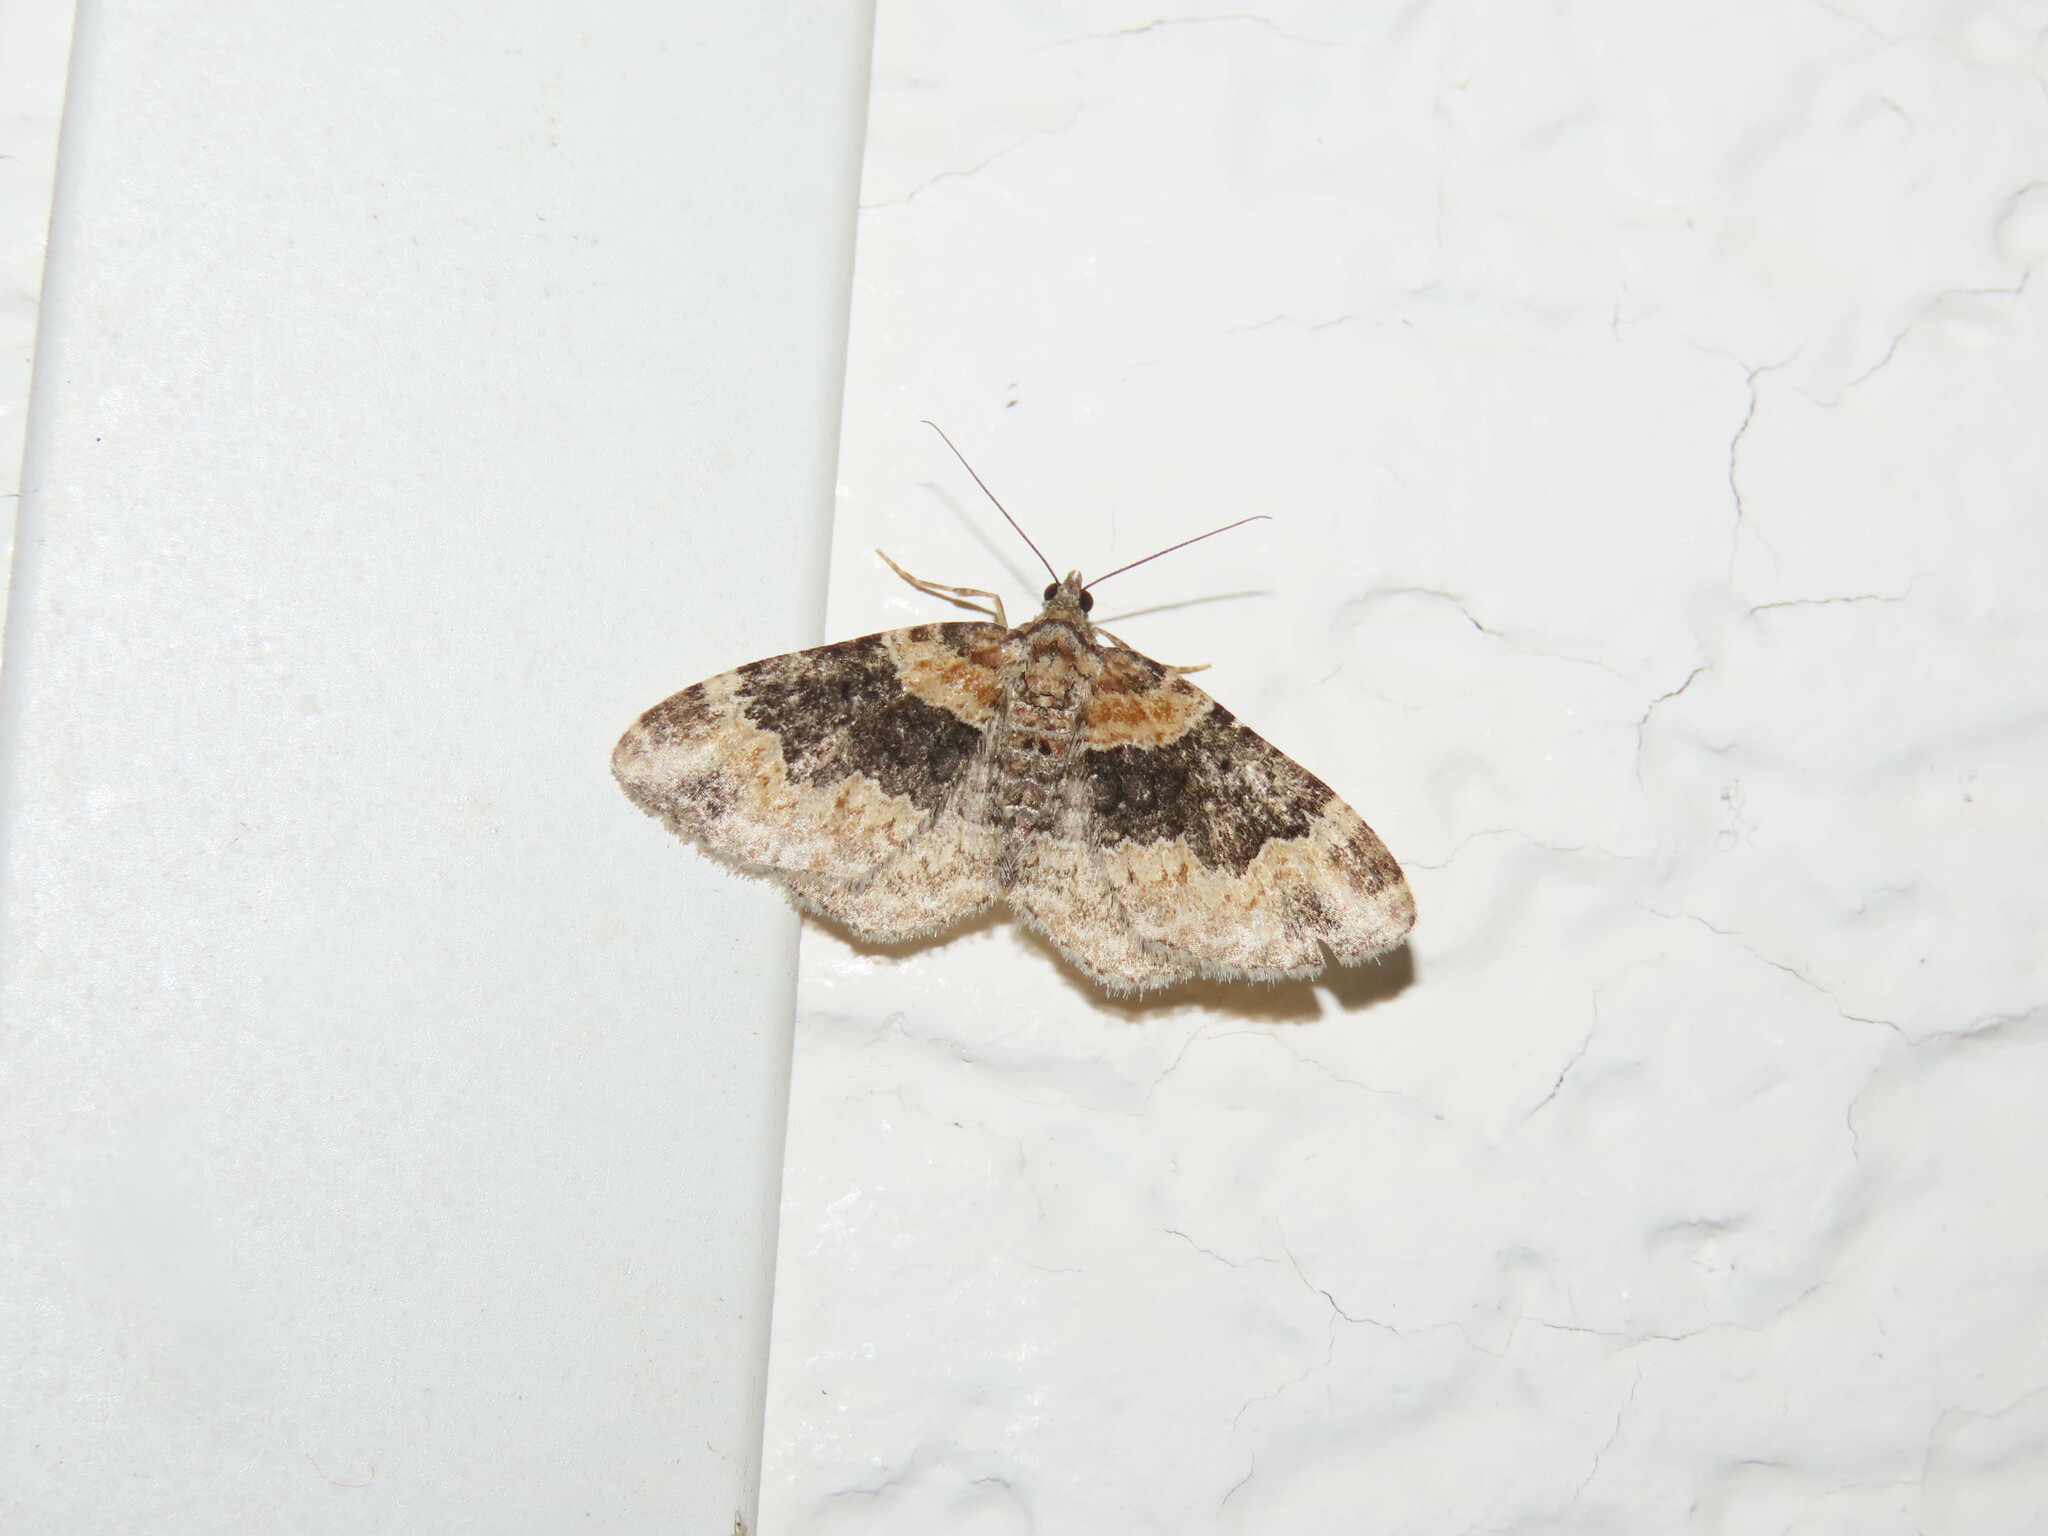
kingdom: Animalia
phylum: Arthropoda
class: Insecta
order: Lepidoptera
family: Geometridae
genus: Xanthorhoe
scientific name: Xanthorhoe ferrugata
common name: Dark-barred twin-spot carpet
